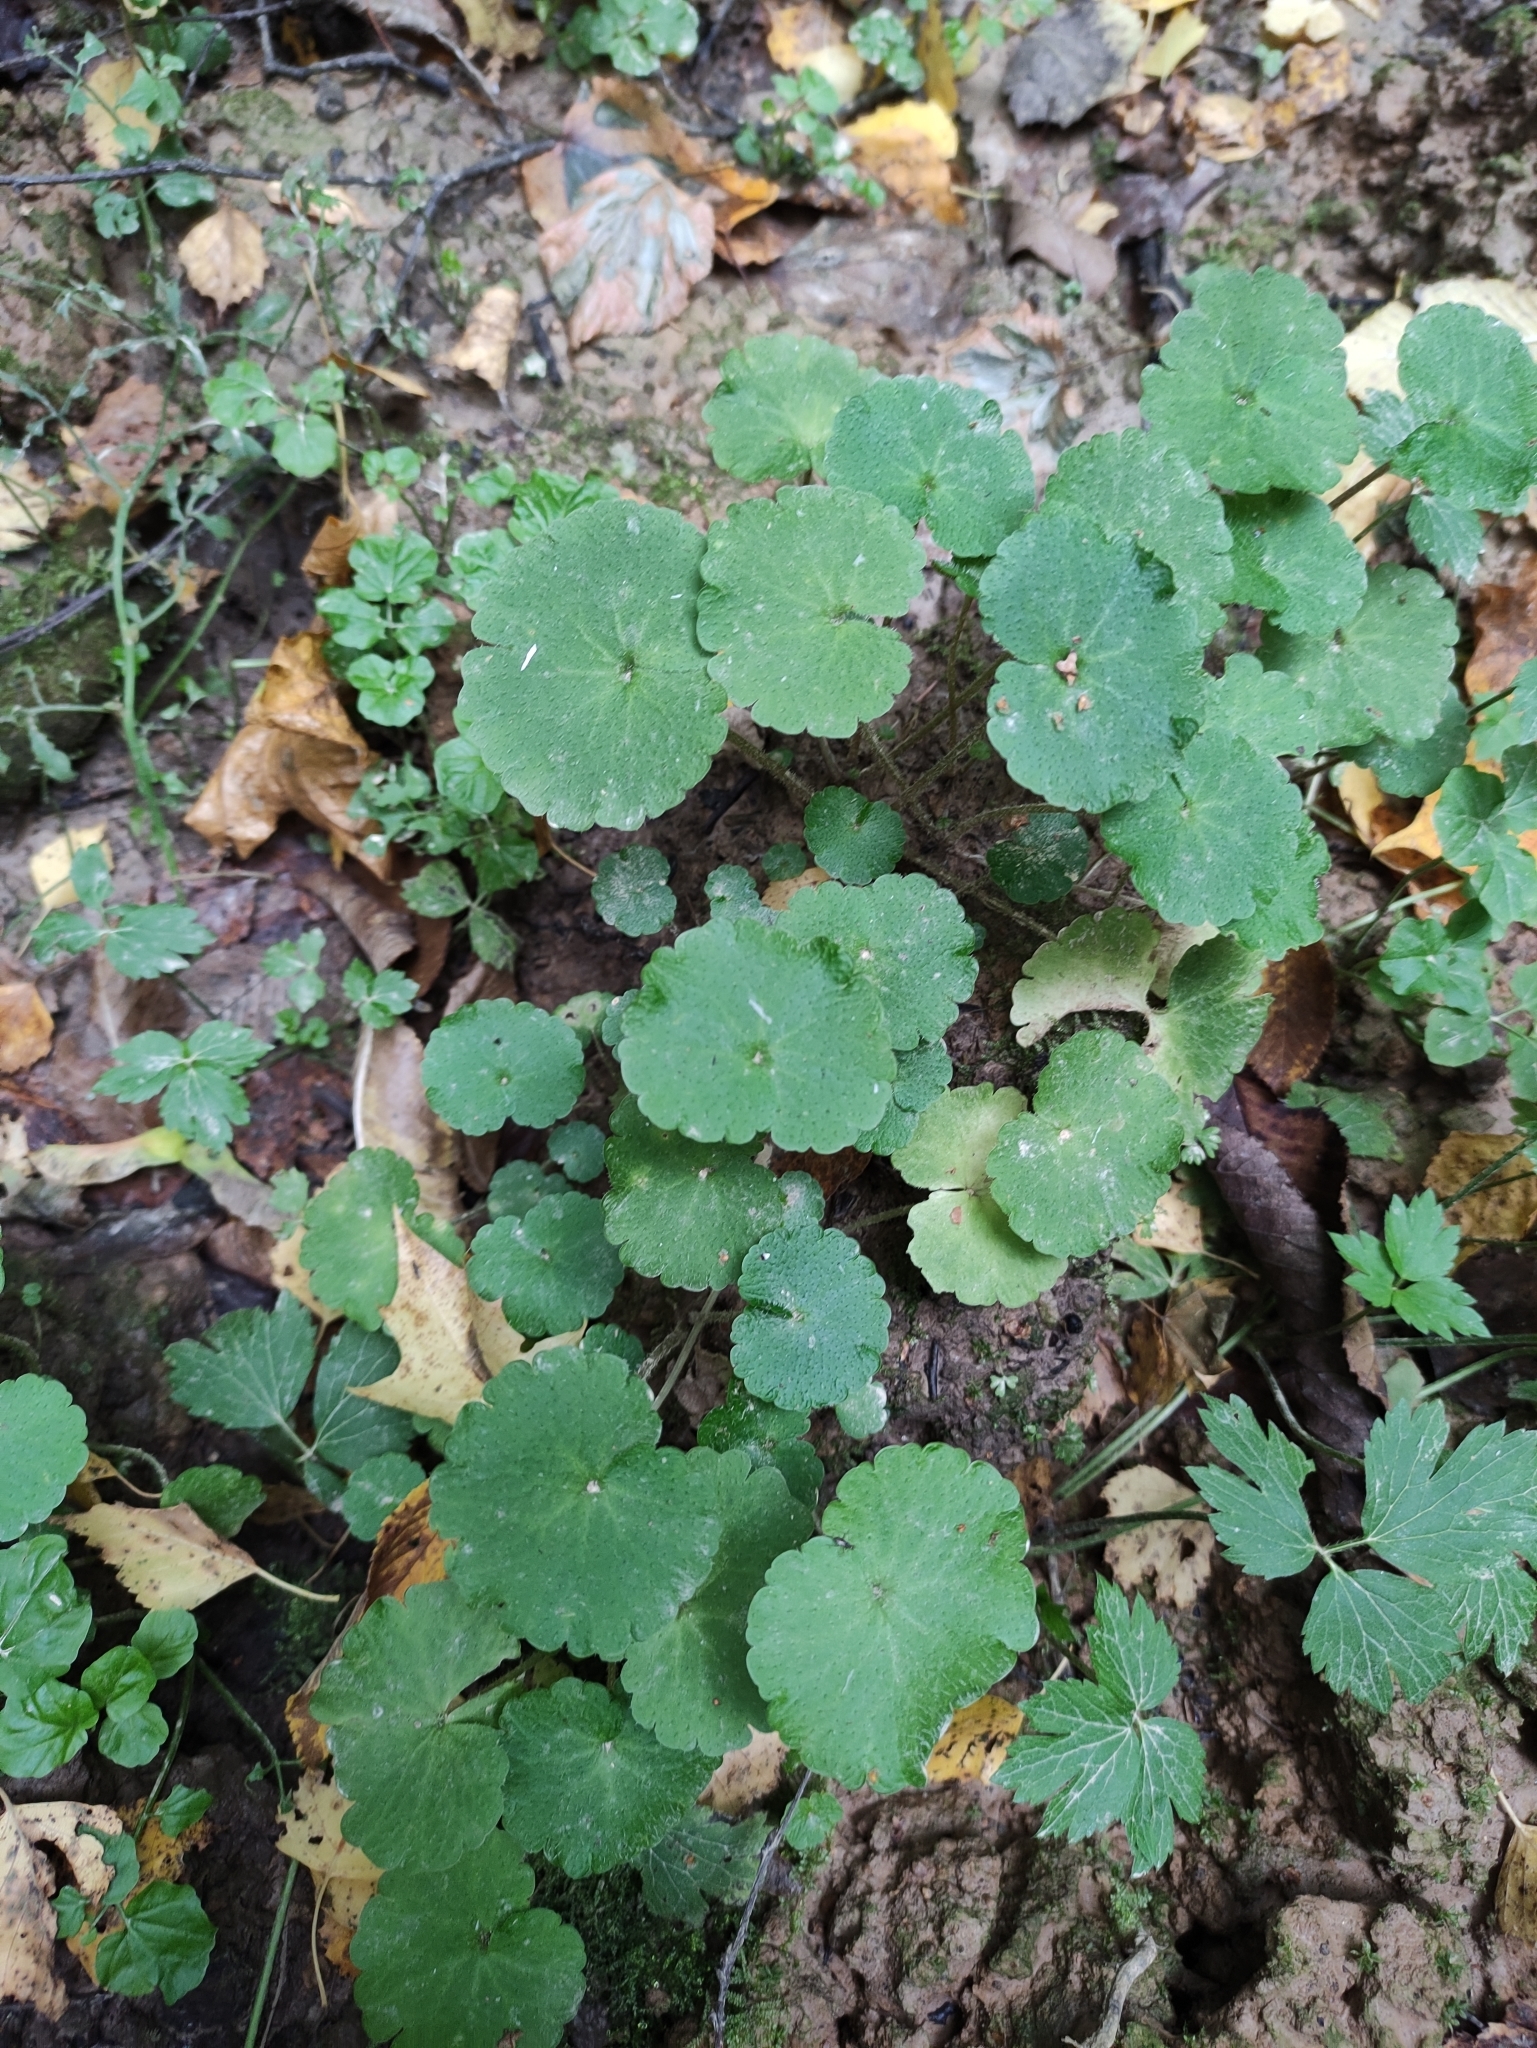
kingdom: Plantae
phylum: Tracheophyta
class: Magnoliopsida
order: Saxifragales
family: Saxifragaceae
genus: Chrysosplenium
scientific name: Chrysosplenium alternifolium
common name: Alternate-leaved golden-saxifrage
